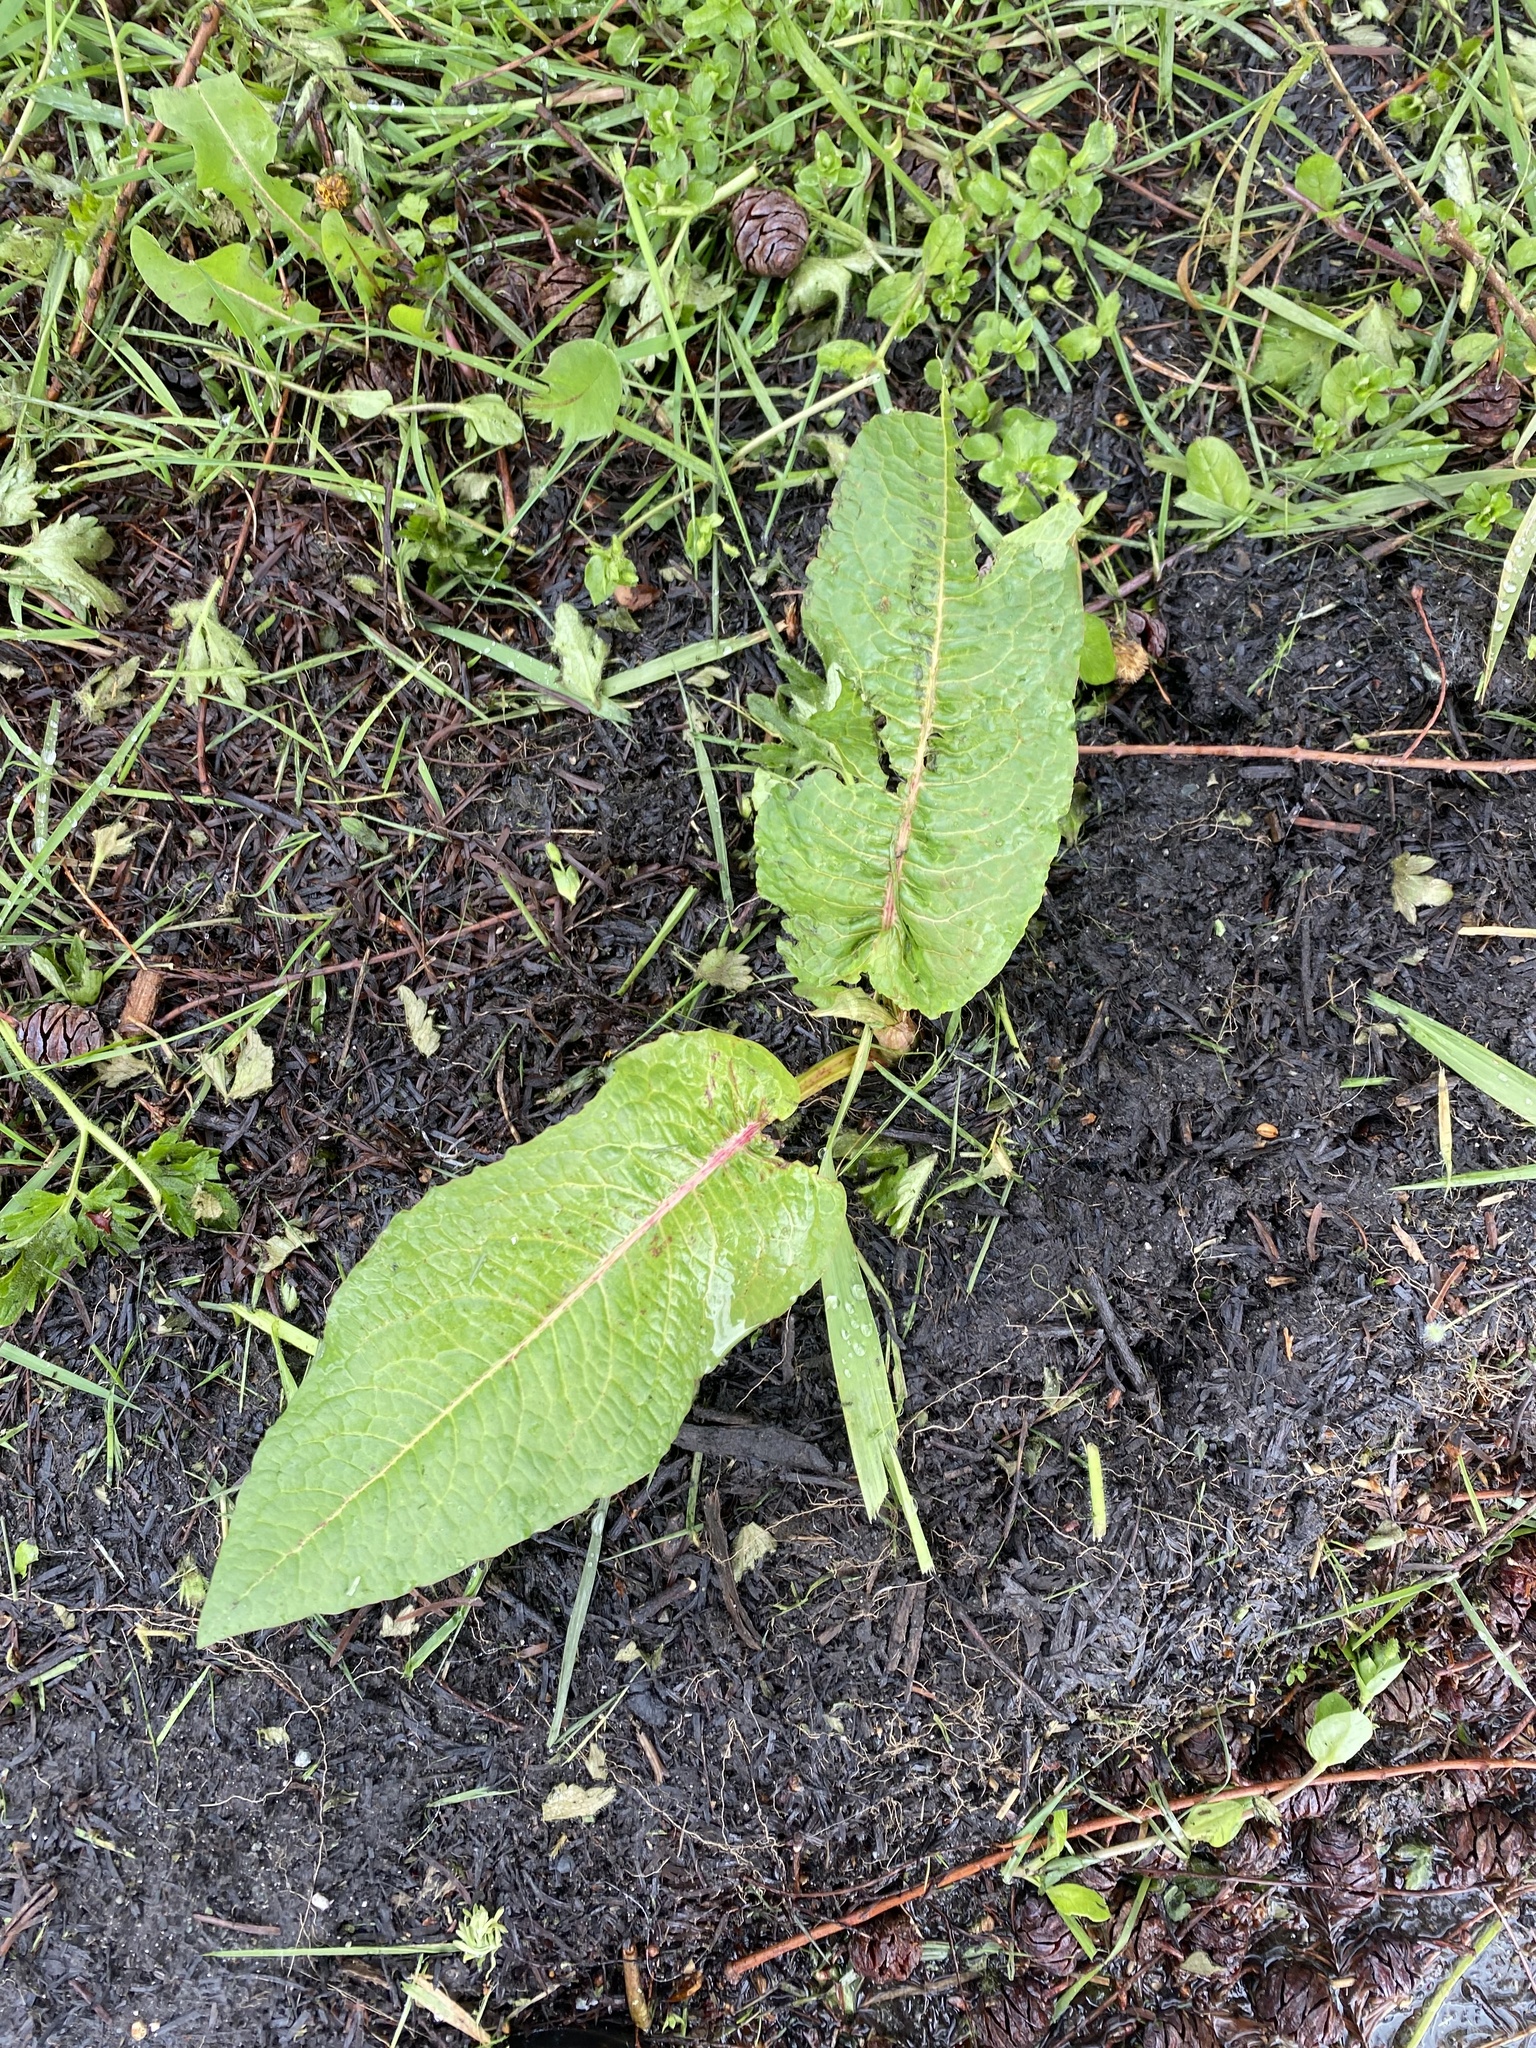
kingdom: Plantae
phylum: Tracheophyta
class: Magnoliopsida
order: Caryophyllales
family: Polygonaceae
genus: Rumex
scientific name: Rumex obtusifolius
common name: Bitter dock
